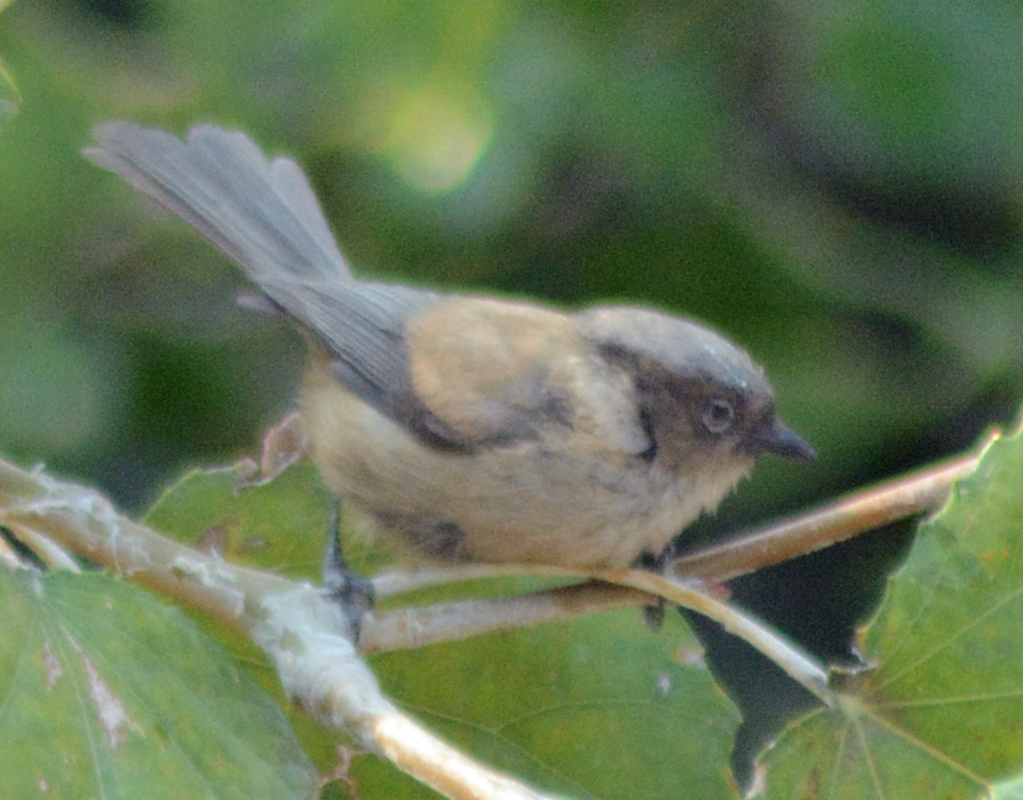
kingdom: Animalia
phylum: Chordata
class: Aves
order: Passeriformes
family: Aegithalidae
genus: Psaltriparus
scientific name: Psaltriparus minimus
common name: American bushtit
